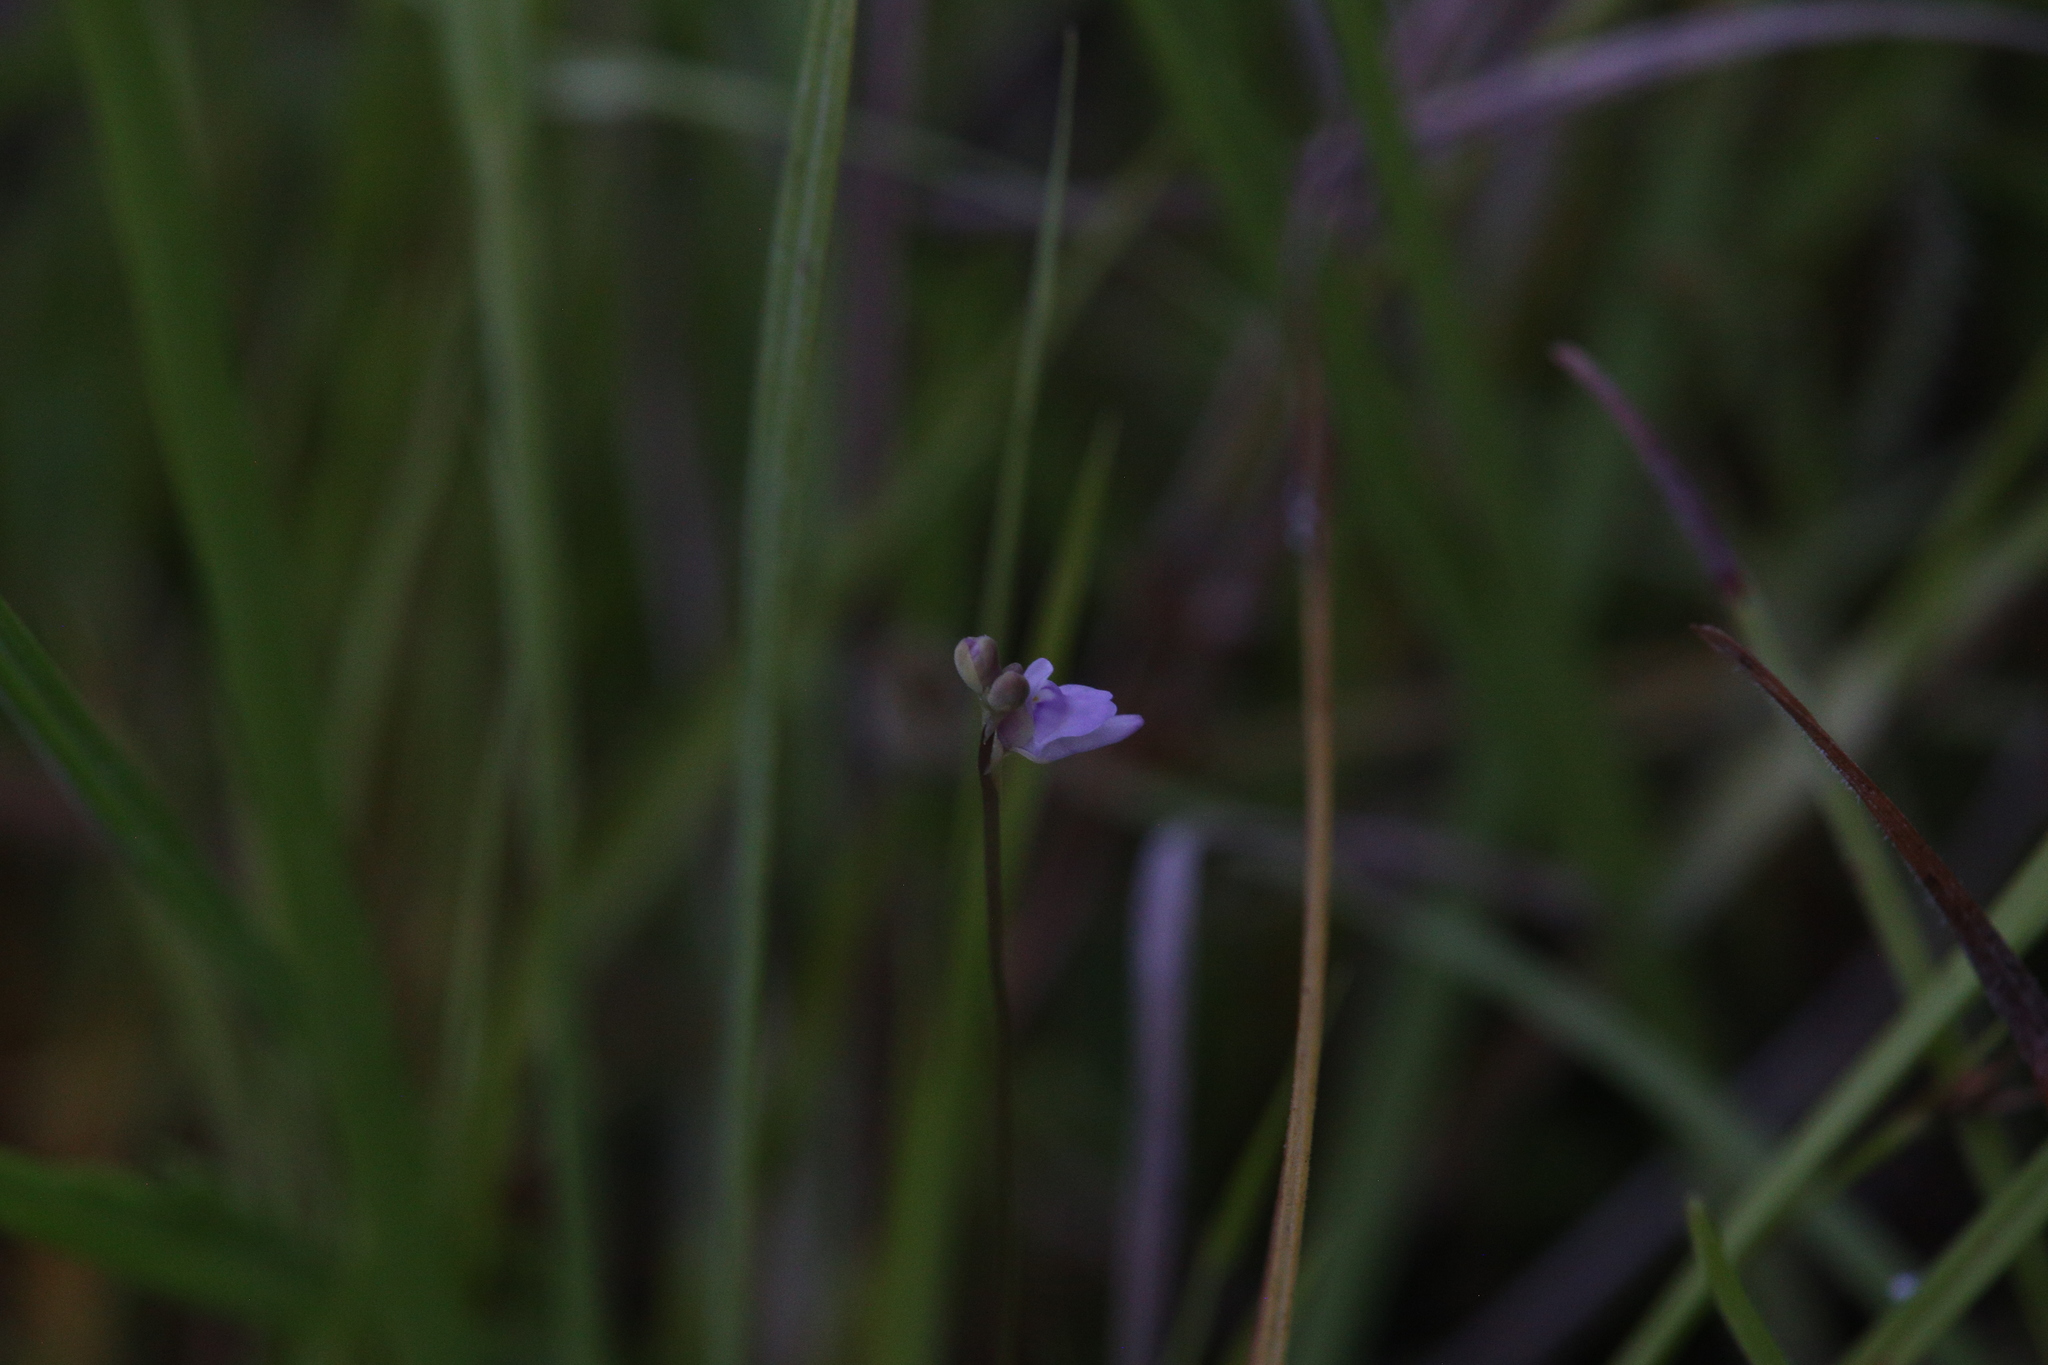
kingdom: Plantae
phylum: Tracheophyta
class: Magnoliopsida
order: Lamiales
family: Lentibulariaceae
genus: Utricularia
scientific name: Utricularia caerulea
